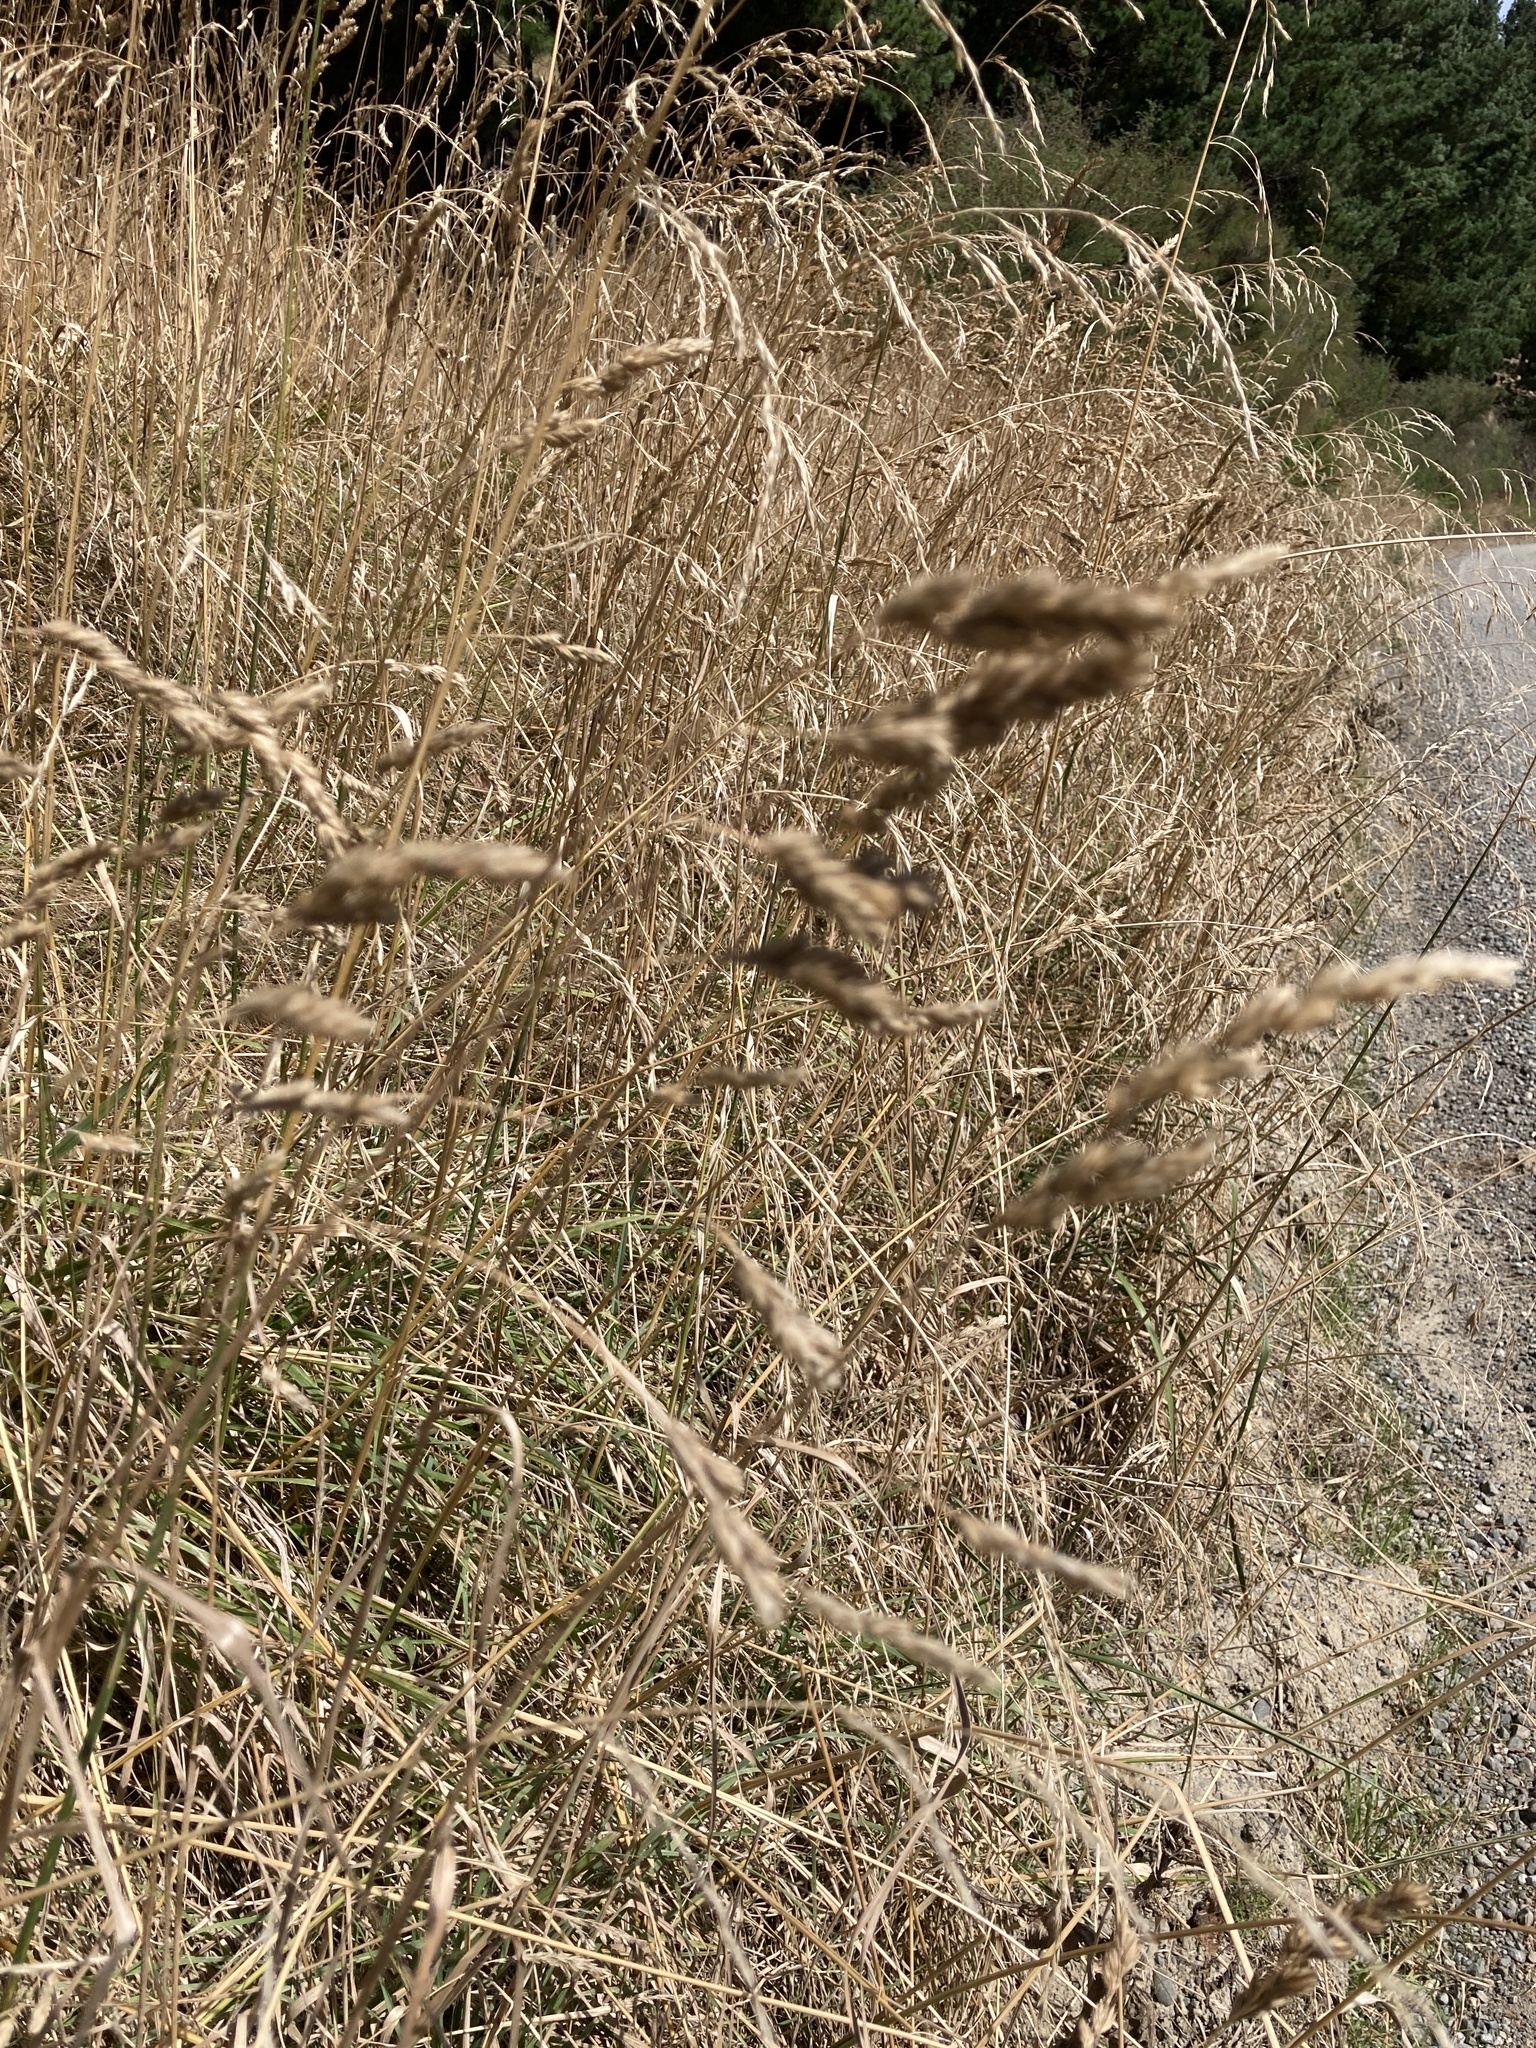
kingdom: Plantae
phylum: Tracheophyta
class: Liliopsida
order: Poales
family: Poaceae
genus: Dactylis
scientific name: Dactylis glomerata
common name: Orchardgrass
